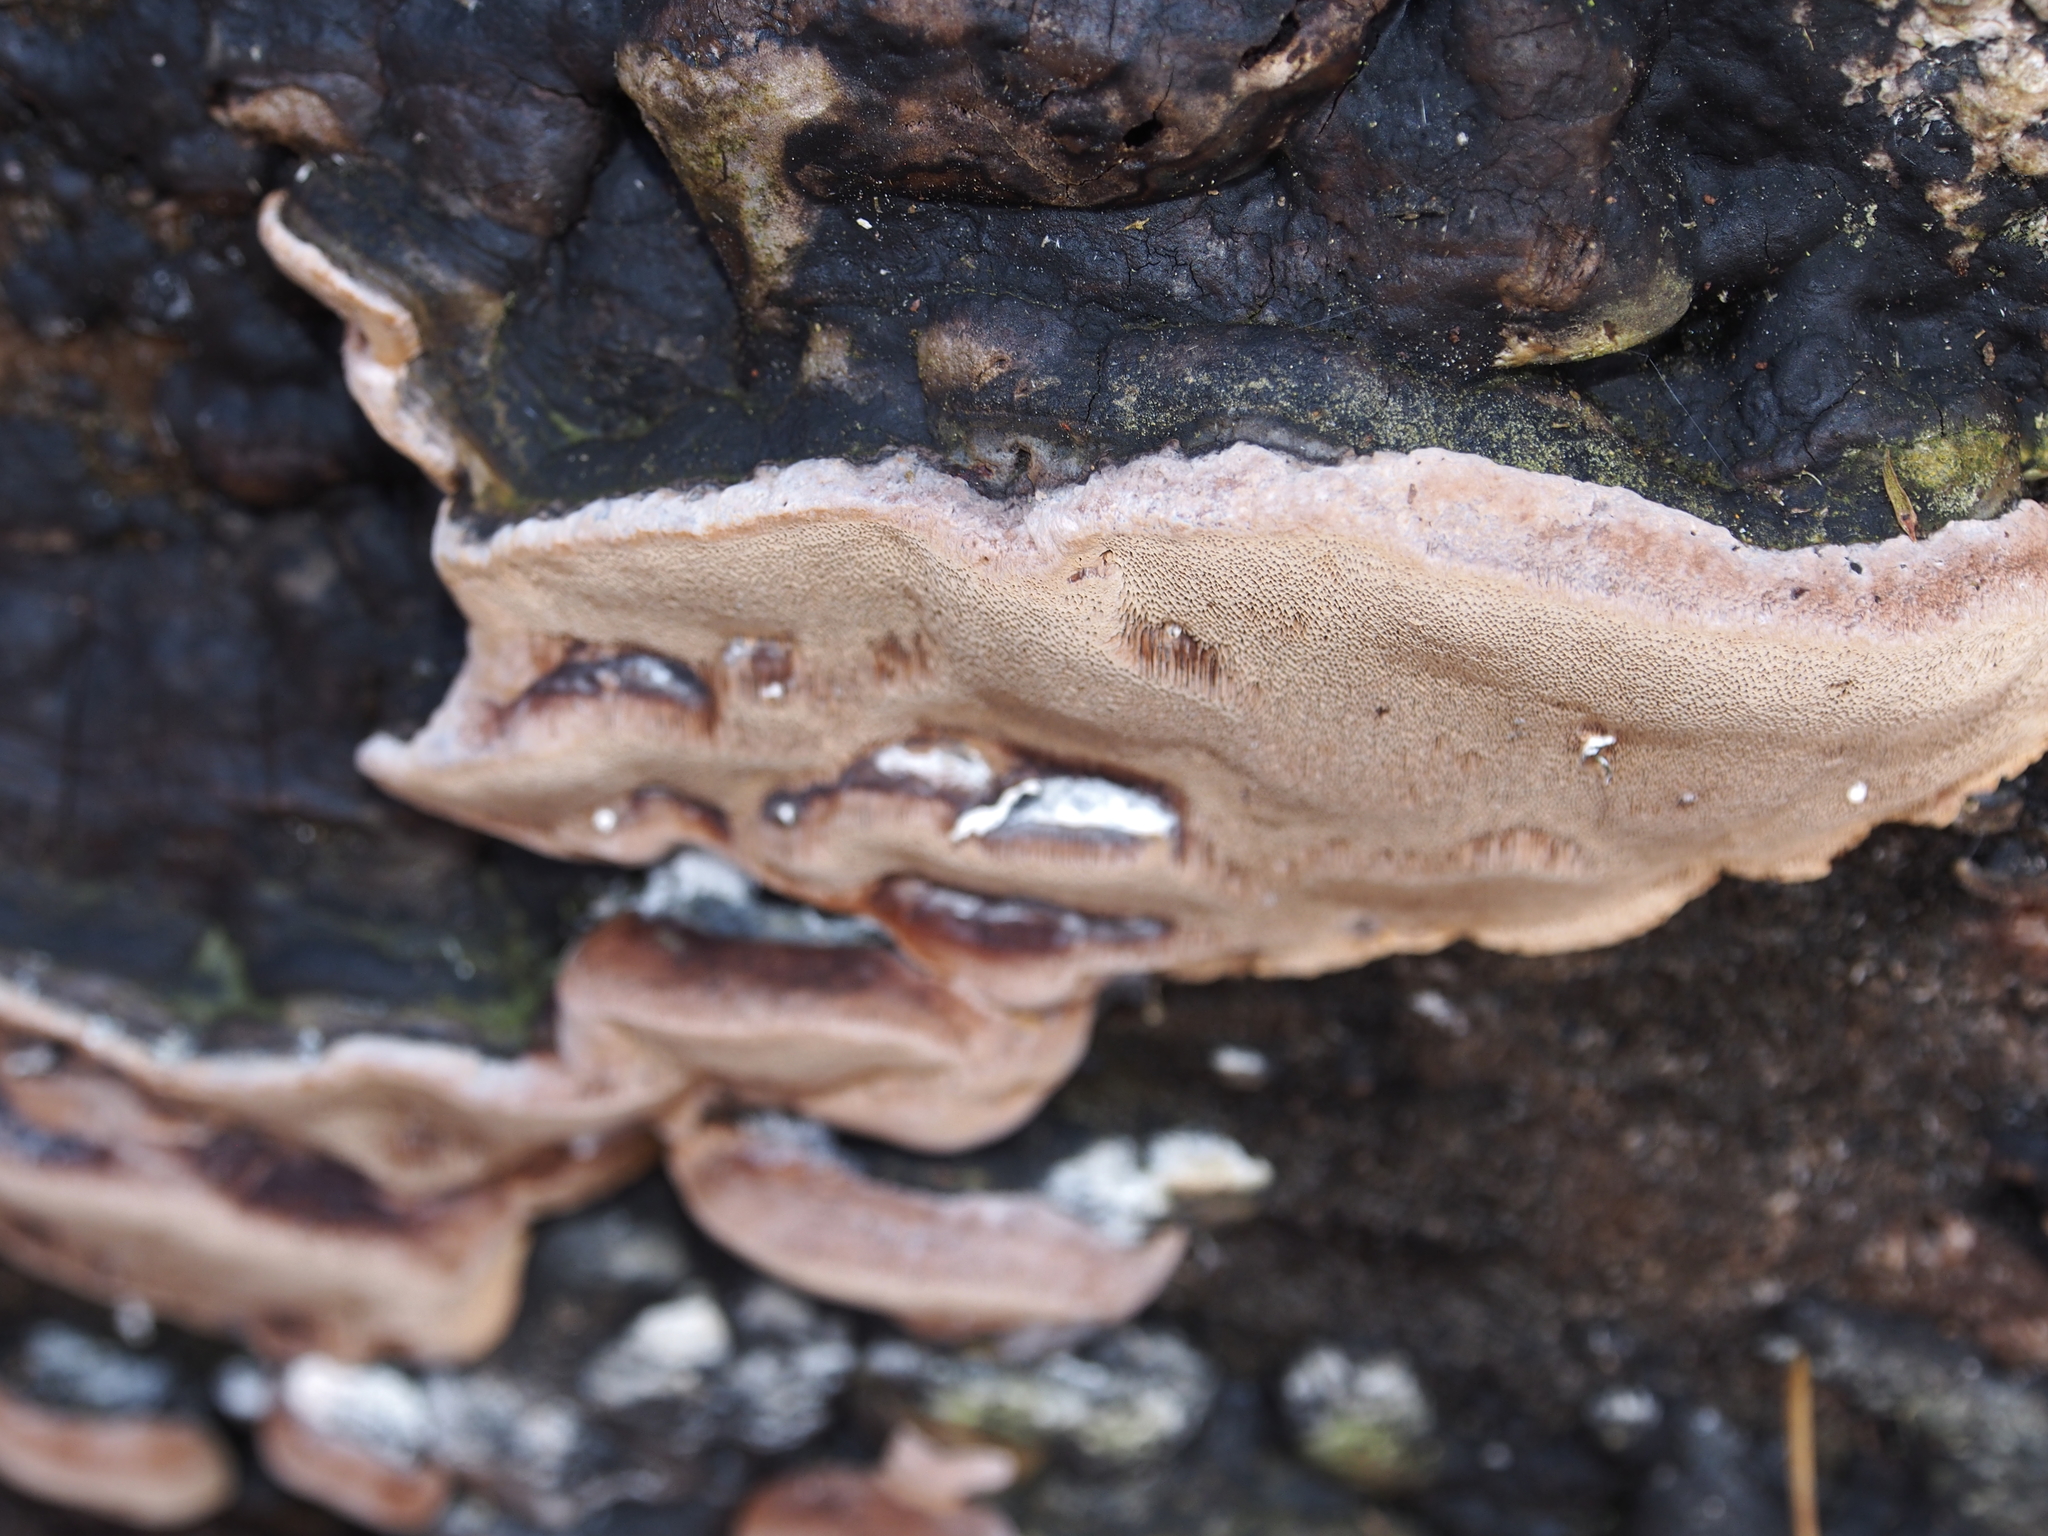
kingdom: Fungi
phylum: Basidiomycota
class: Agaricomycetes
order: Polyporales
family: Fomitopsidaceae
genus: Rhodofomes
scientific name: Rhodofomes roseus
